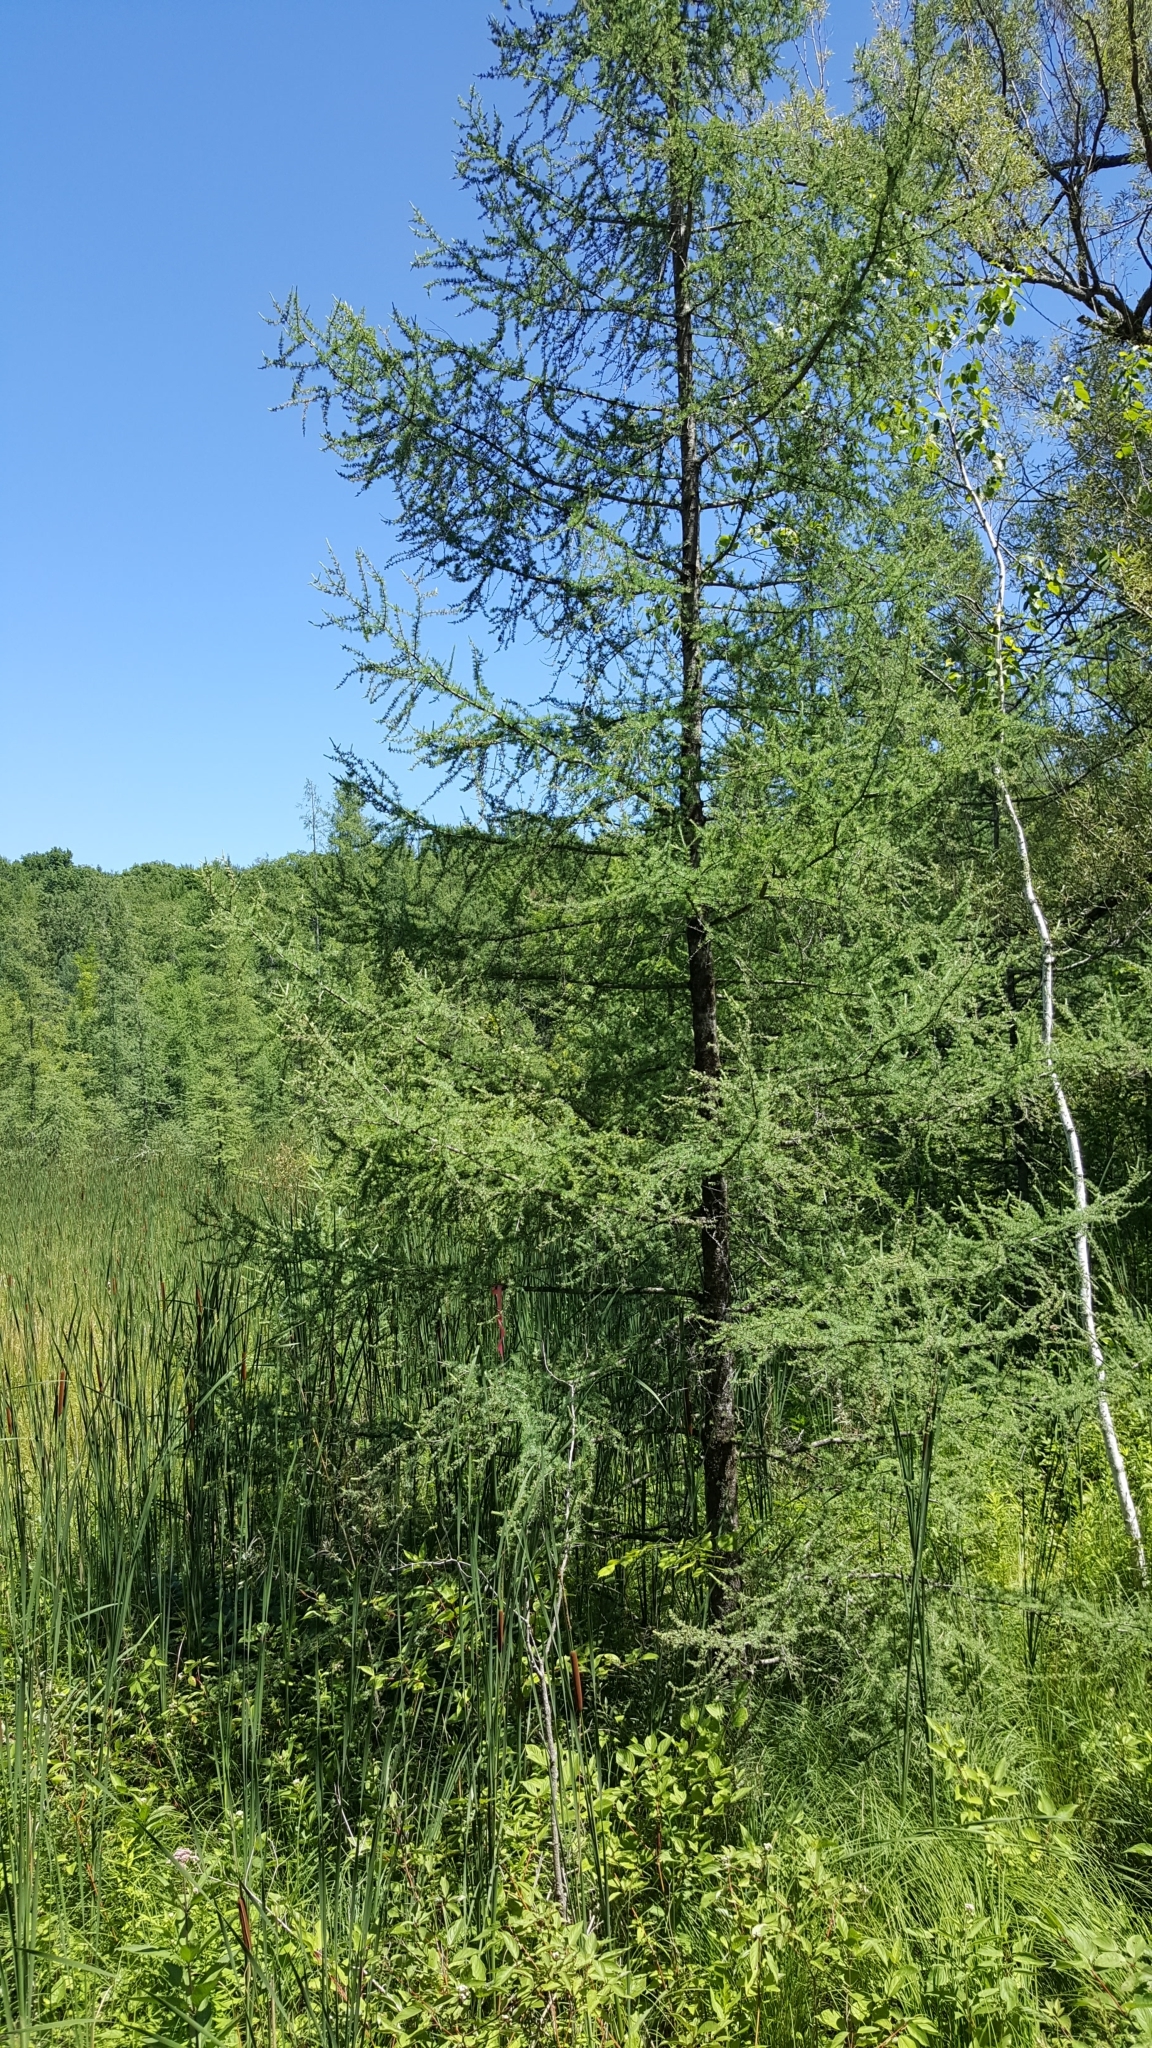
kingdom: Plantae
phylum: Tracheophyta
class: Pinopsida
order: Pinales
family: Pinaceae
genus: Larix
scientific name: Larix laricina
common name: American larch
